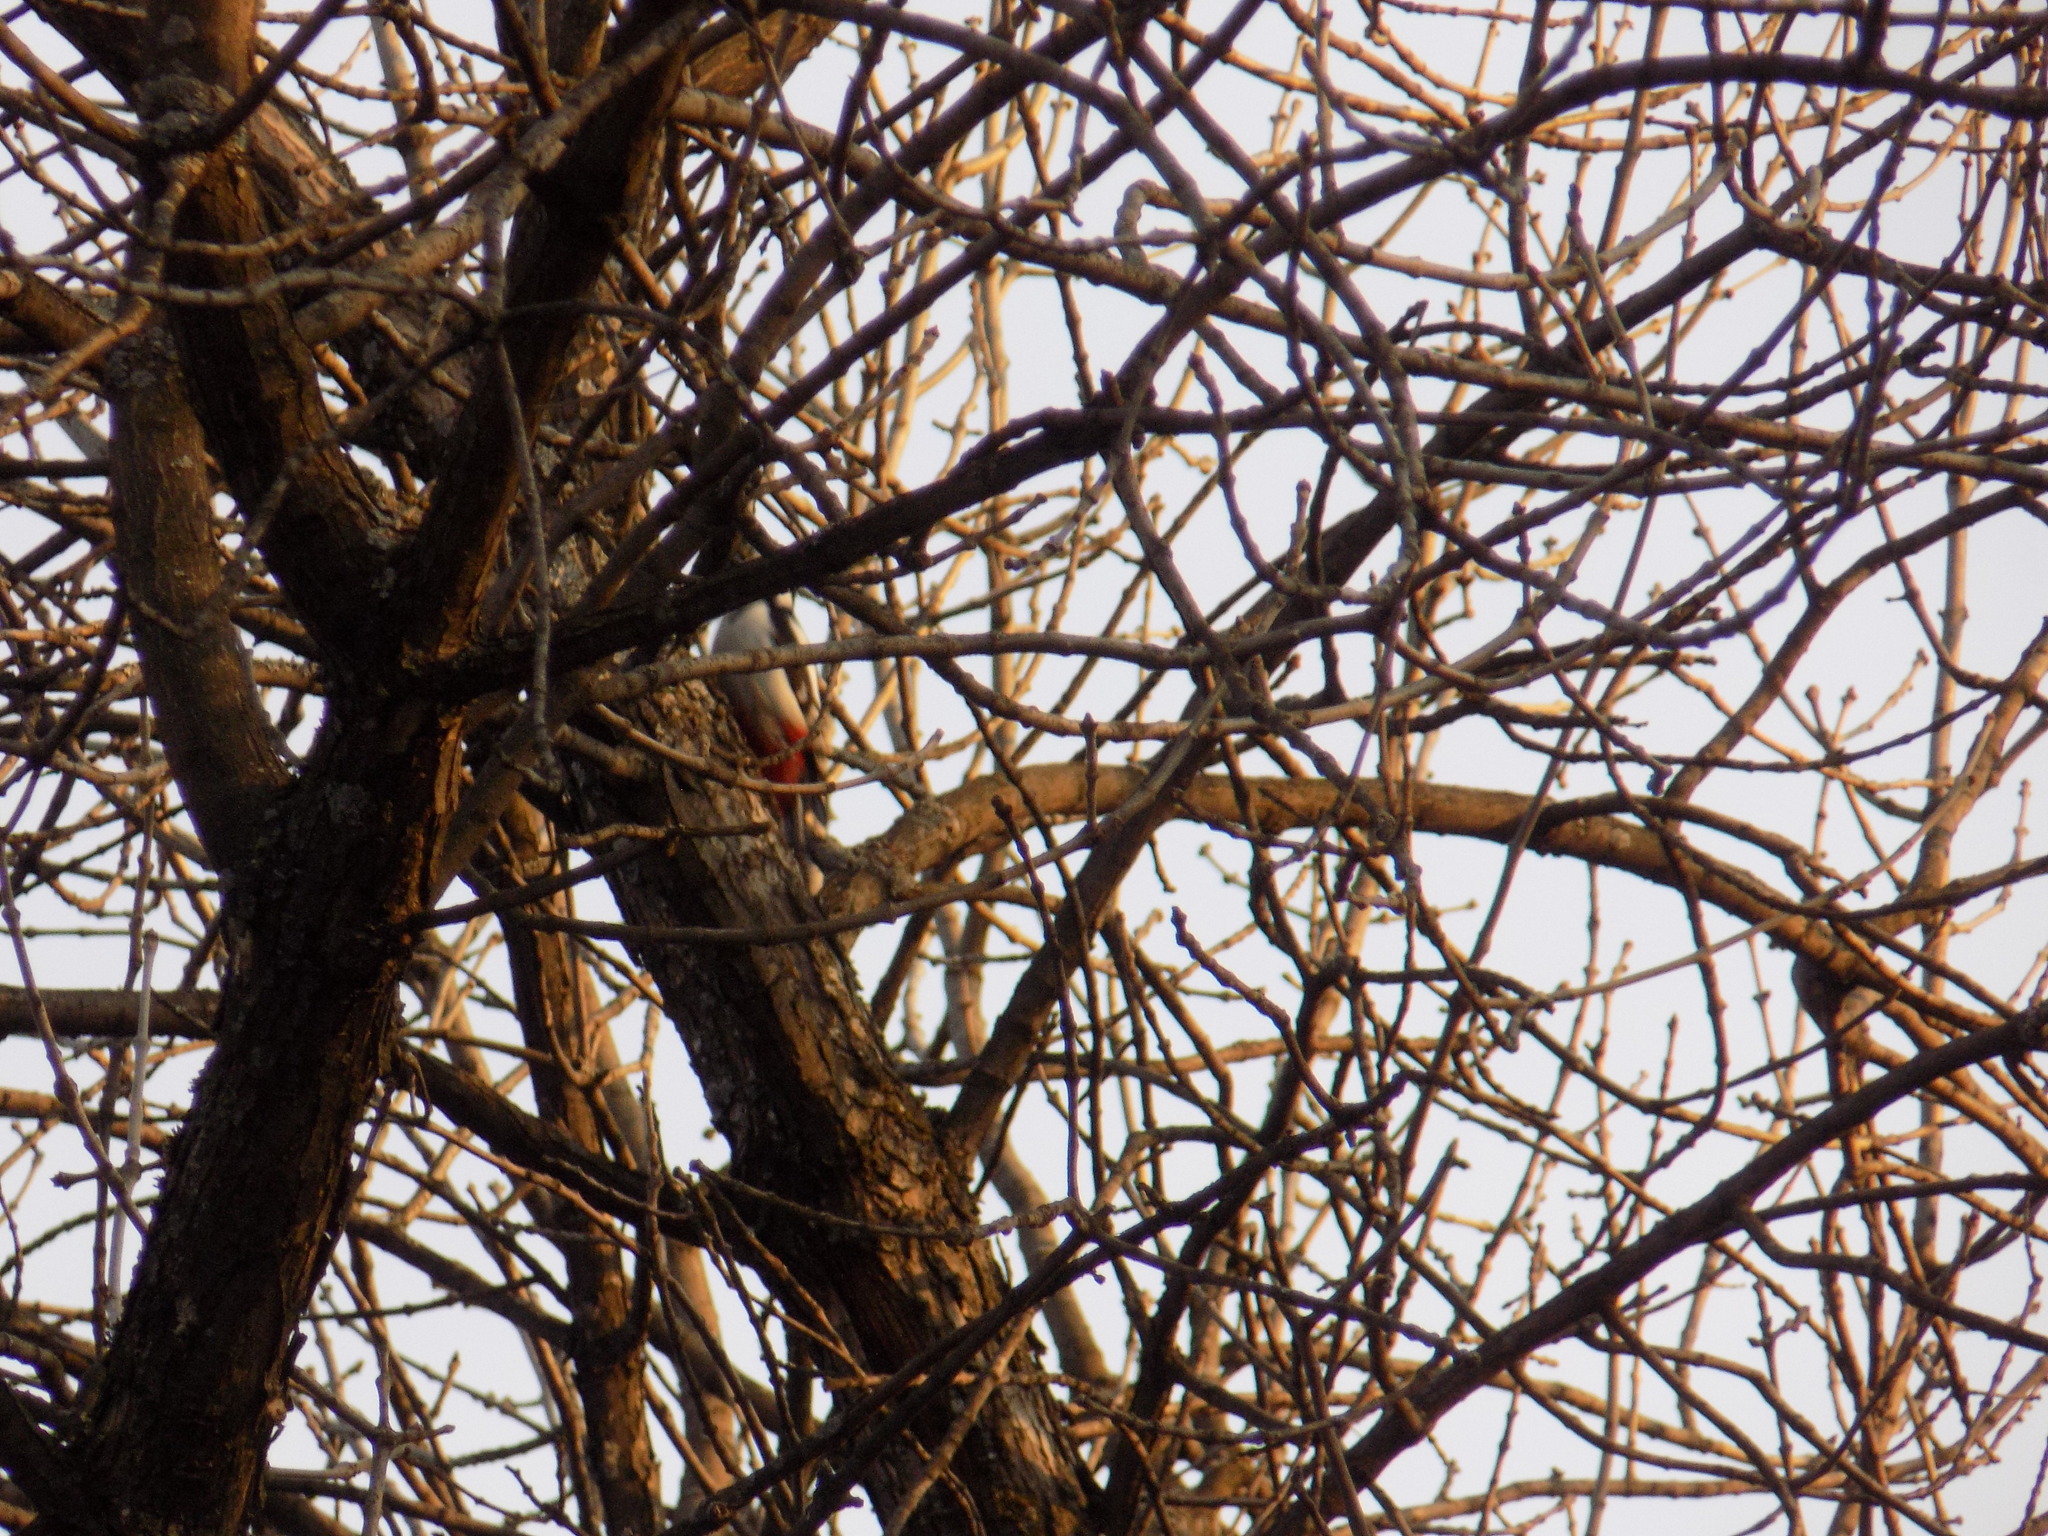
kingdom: Animalia
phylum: Chordata
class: Aves
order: Piciformes
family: Picidae
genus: Dendrocopos
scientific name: Dendrocopos major
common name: Great spotted woodpecker
